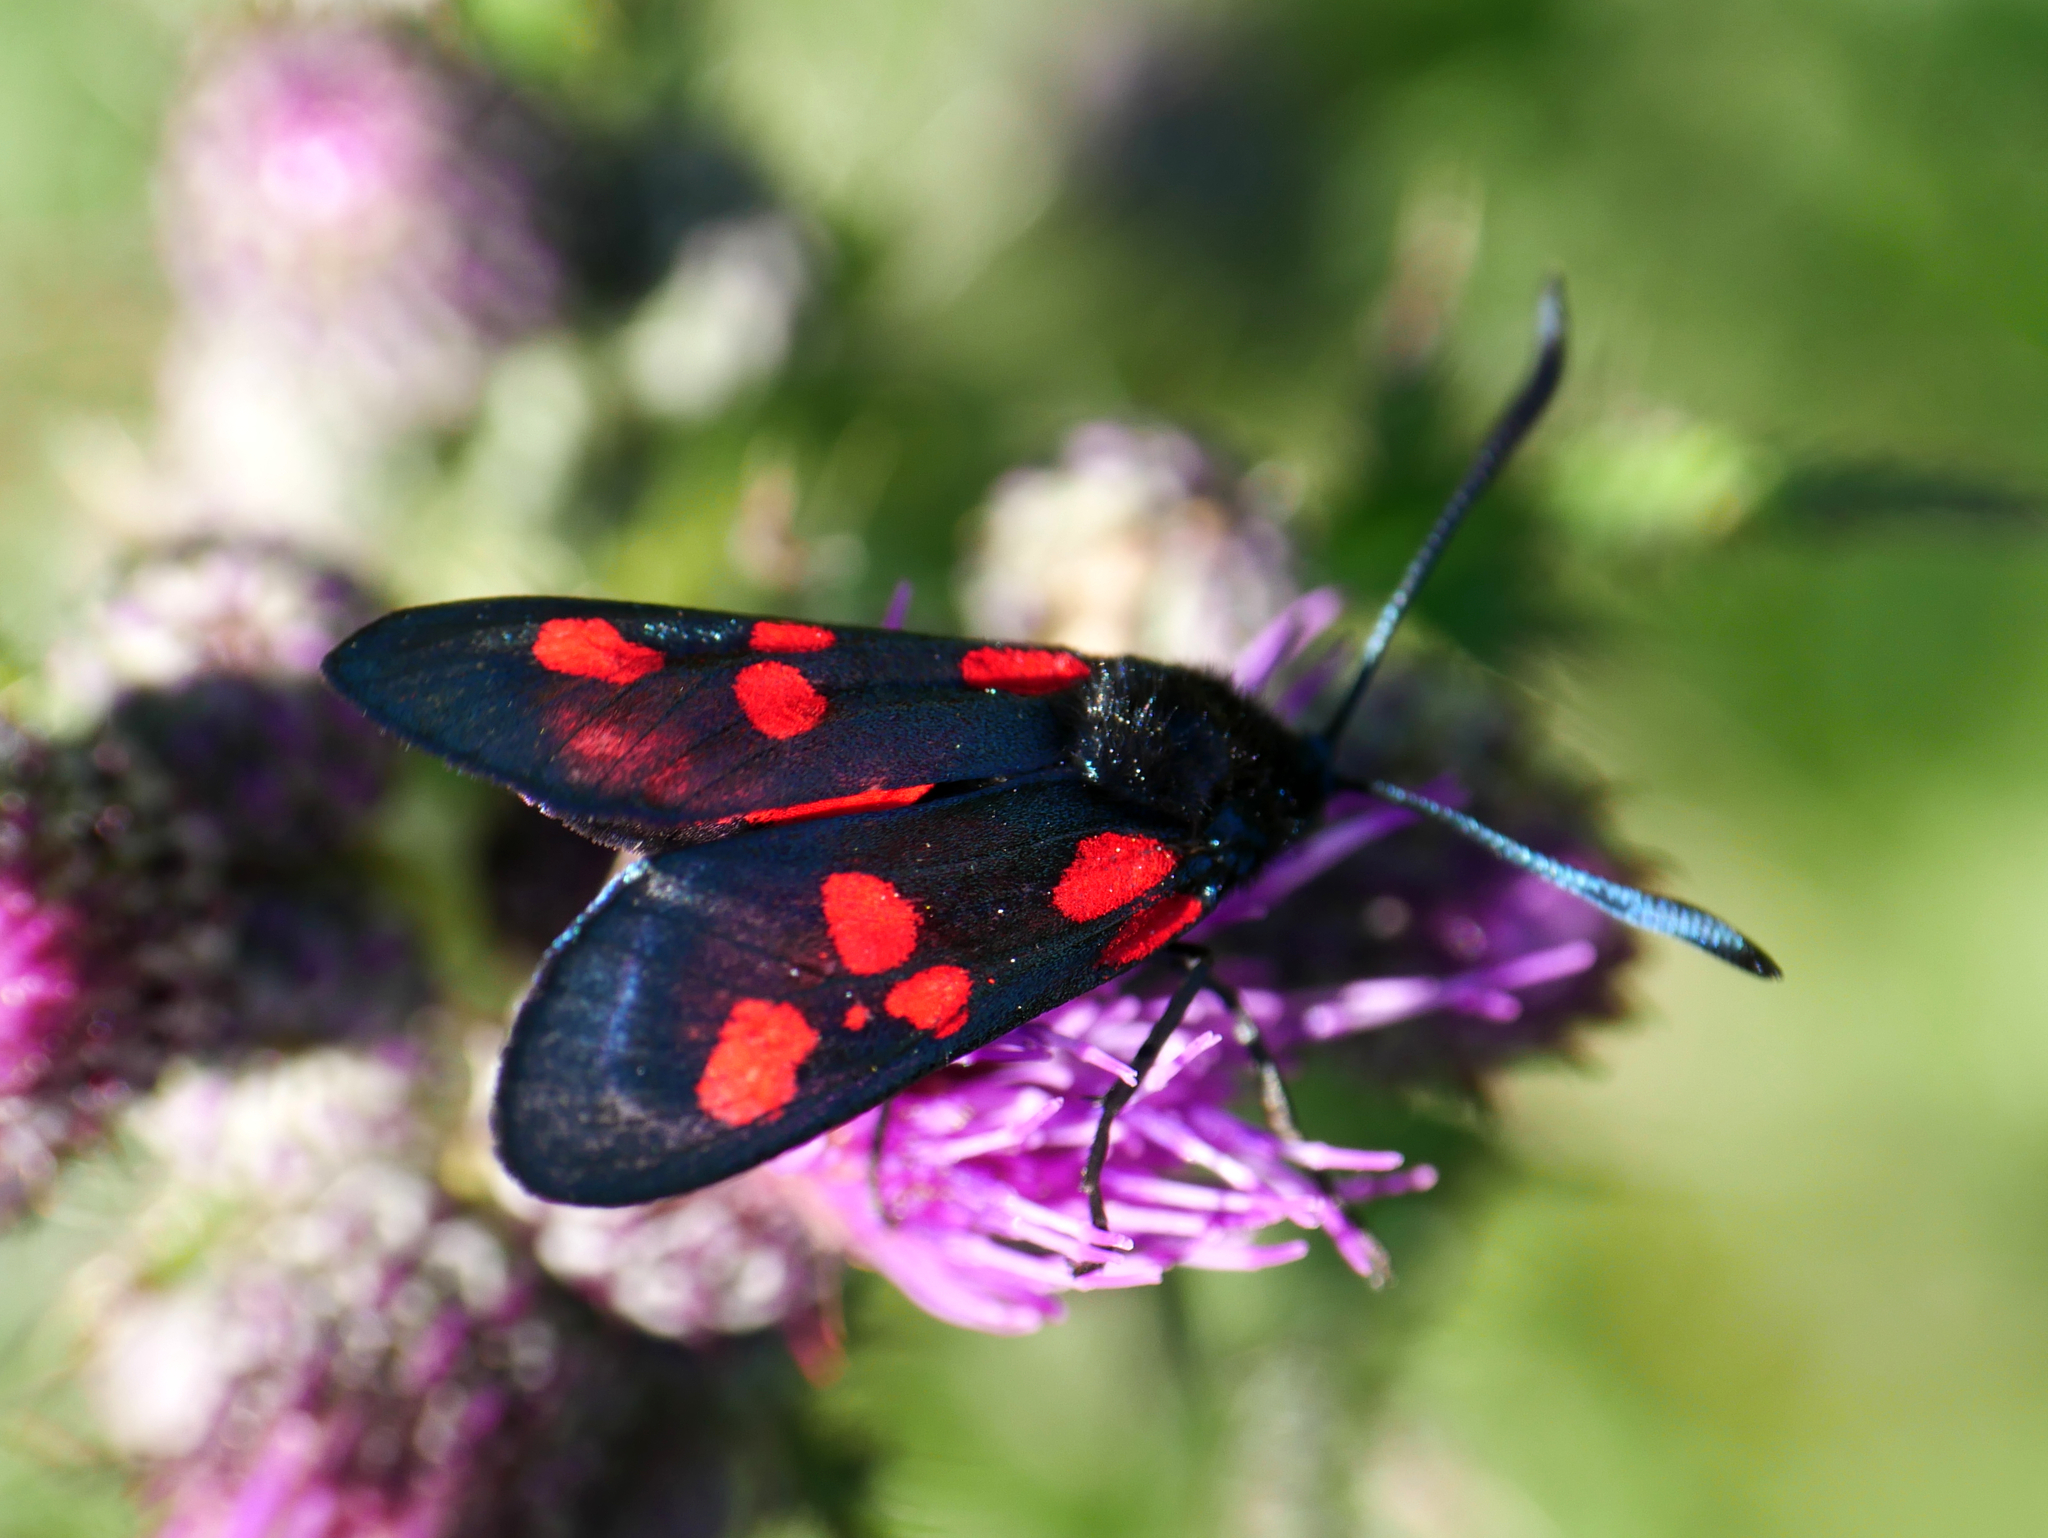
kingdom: Animalia
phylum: Arthropoda
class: Insecta
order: Lepidoptera
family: Zygaenidae
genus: Zygaena
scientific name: Zygaena lonicerae
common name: Narrow-bordered five-spot burnet
